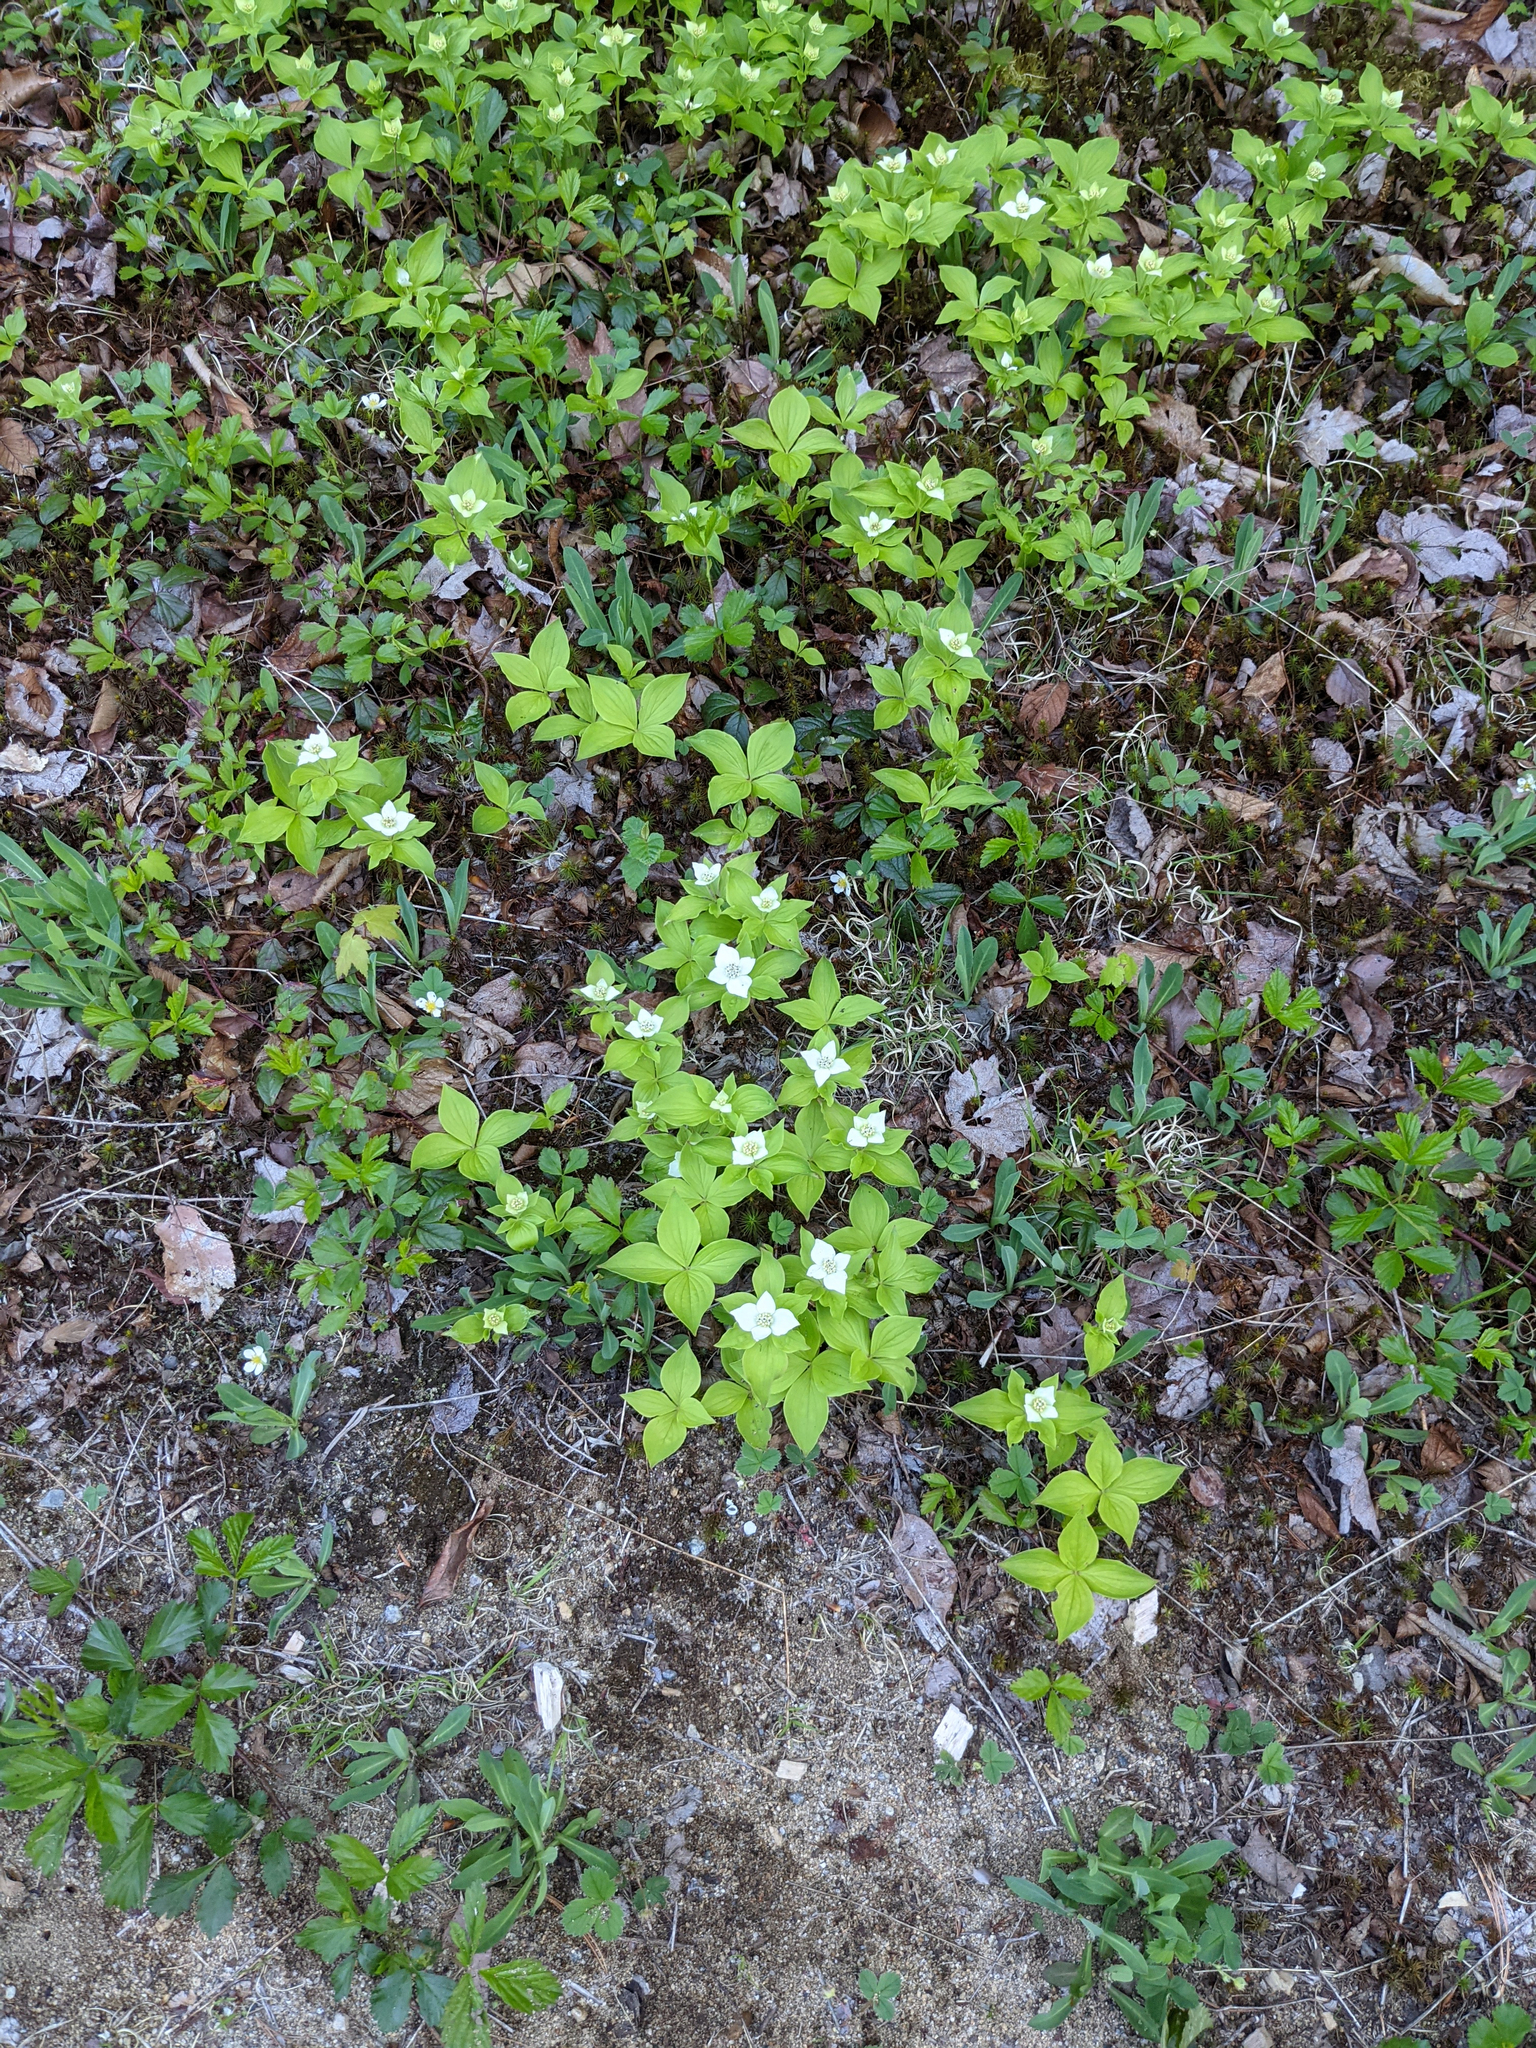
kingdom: Plantae
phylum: Tracheophyta
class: Magnoliopsida
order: Cornales
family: Cornaceae
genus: Cornus
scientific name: Cornus canadensis
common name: Creeping dogwood
